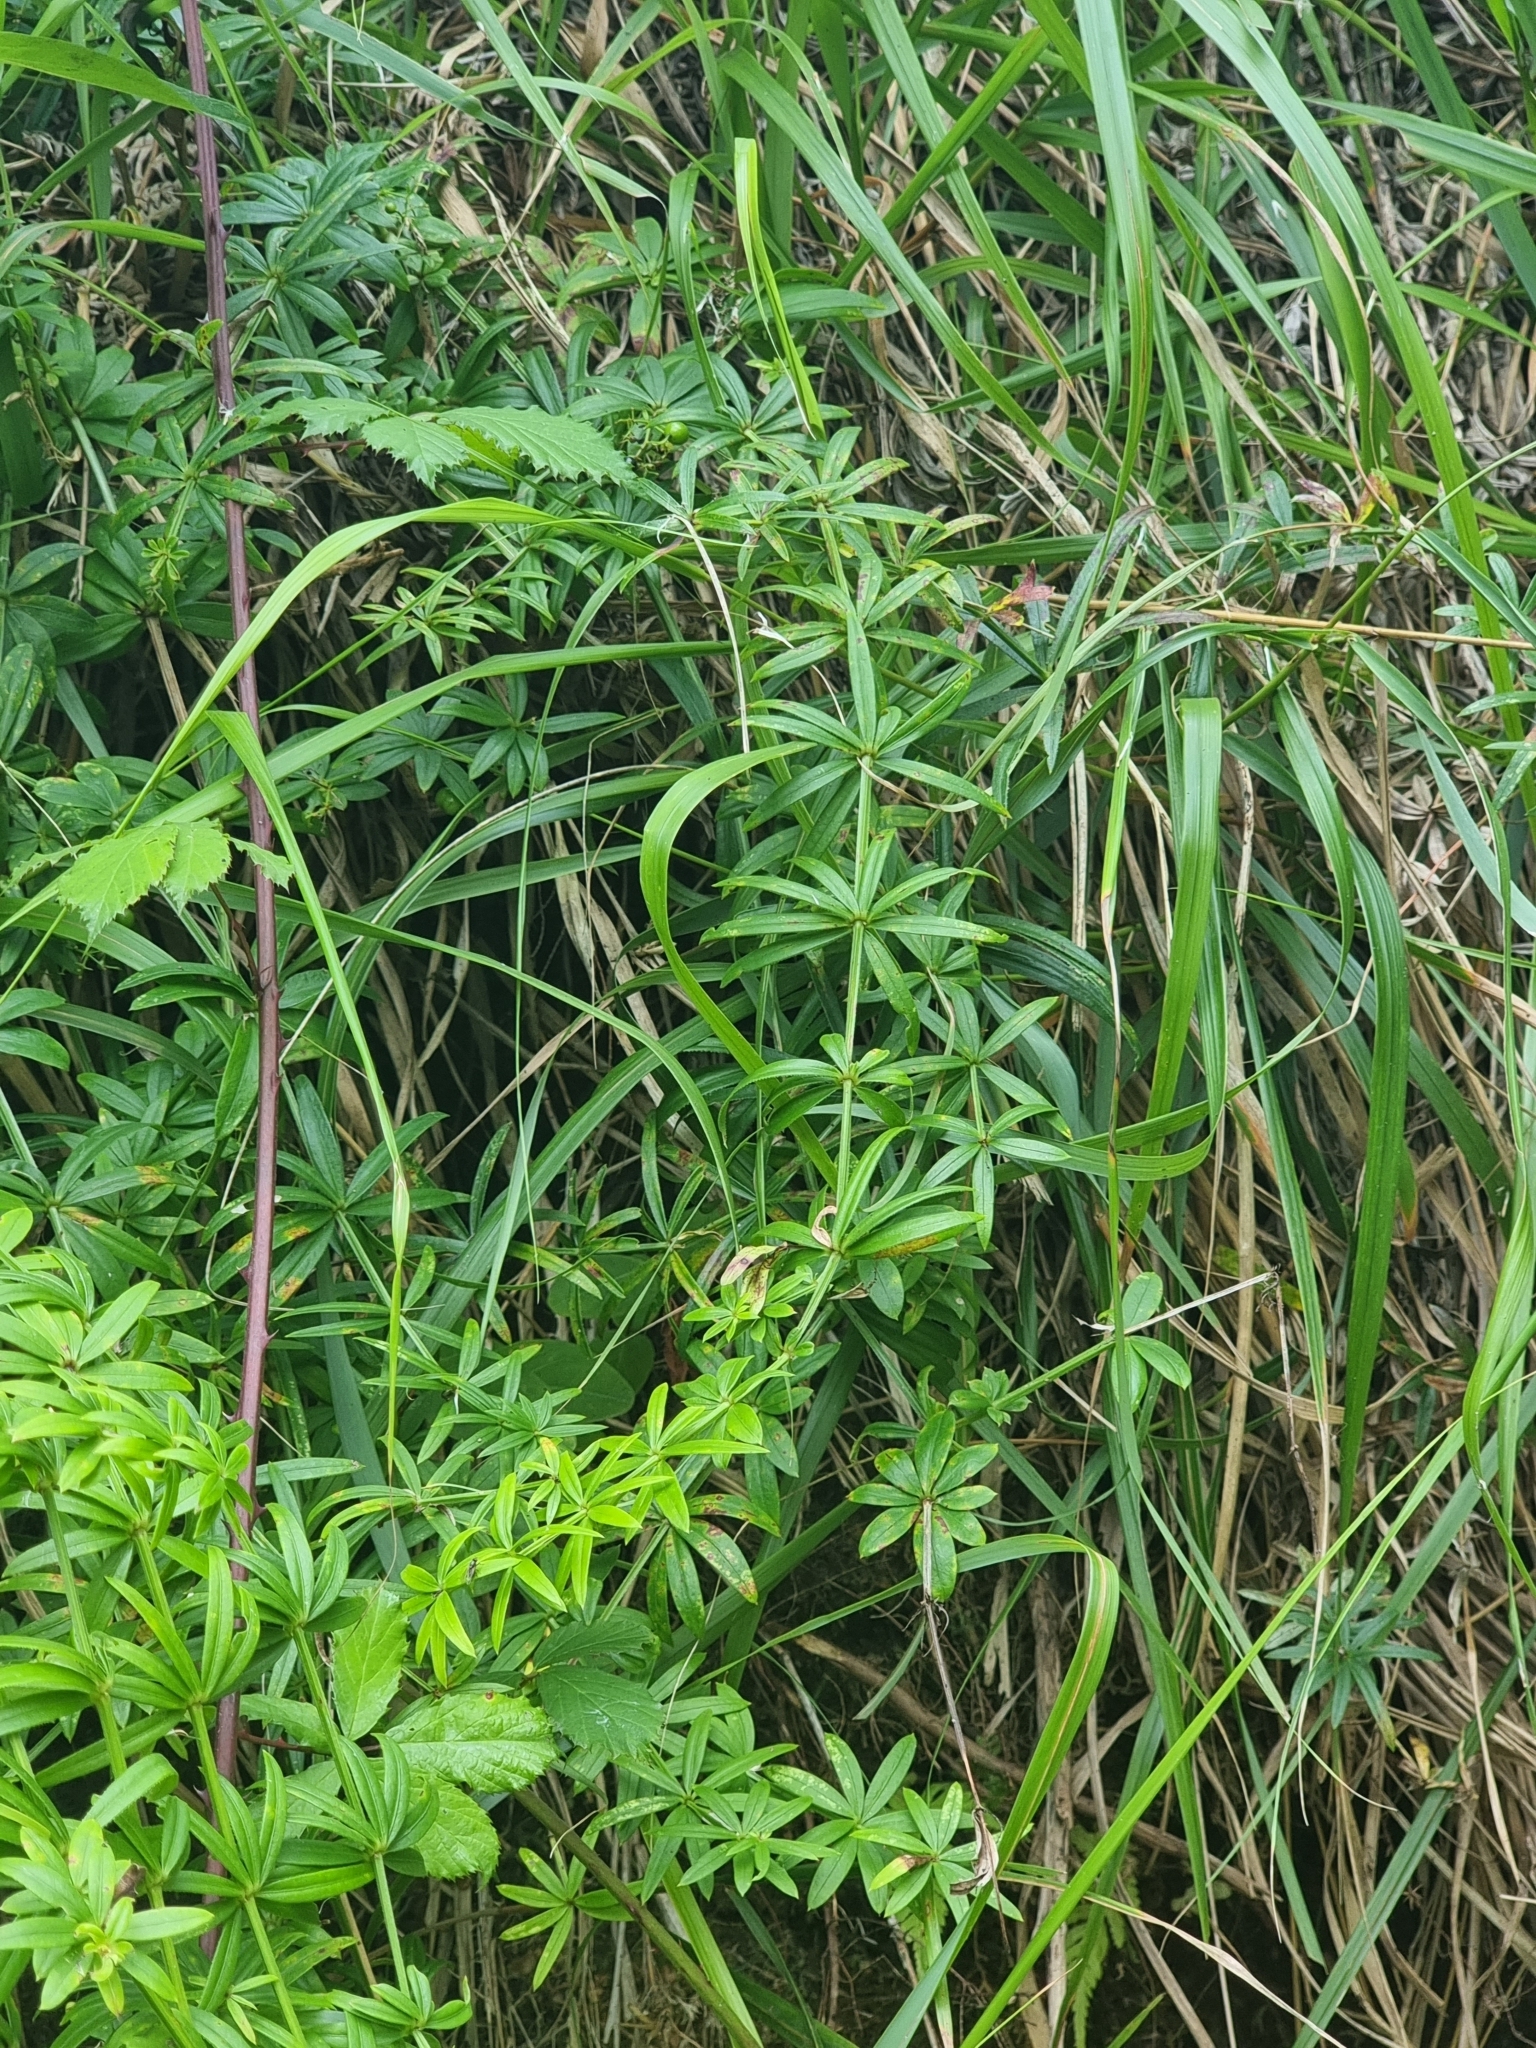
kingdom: Plantae
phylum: Tracheophyta
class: Magnoliopsida
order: Gentianales
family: Rubiaceae
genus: Rubia
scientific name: Rubia occidens
